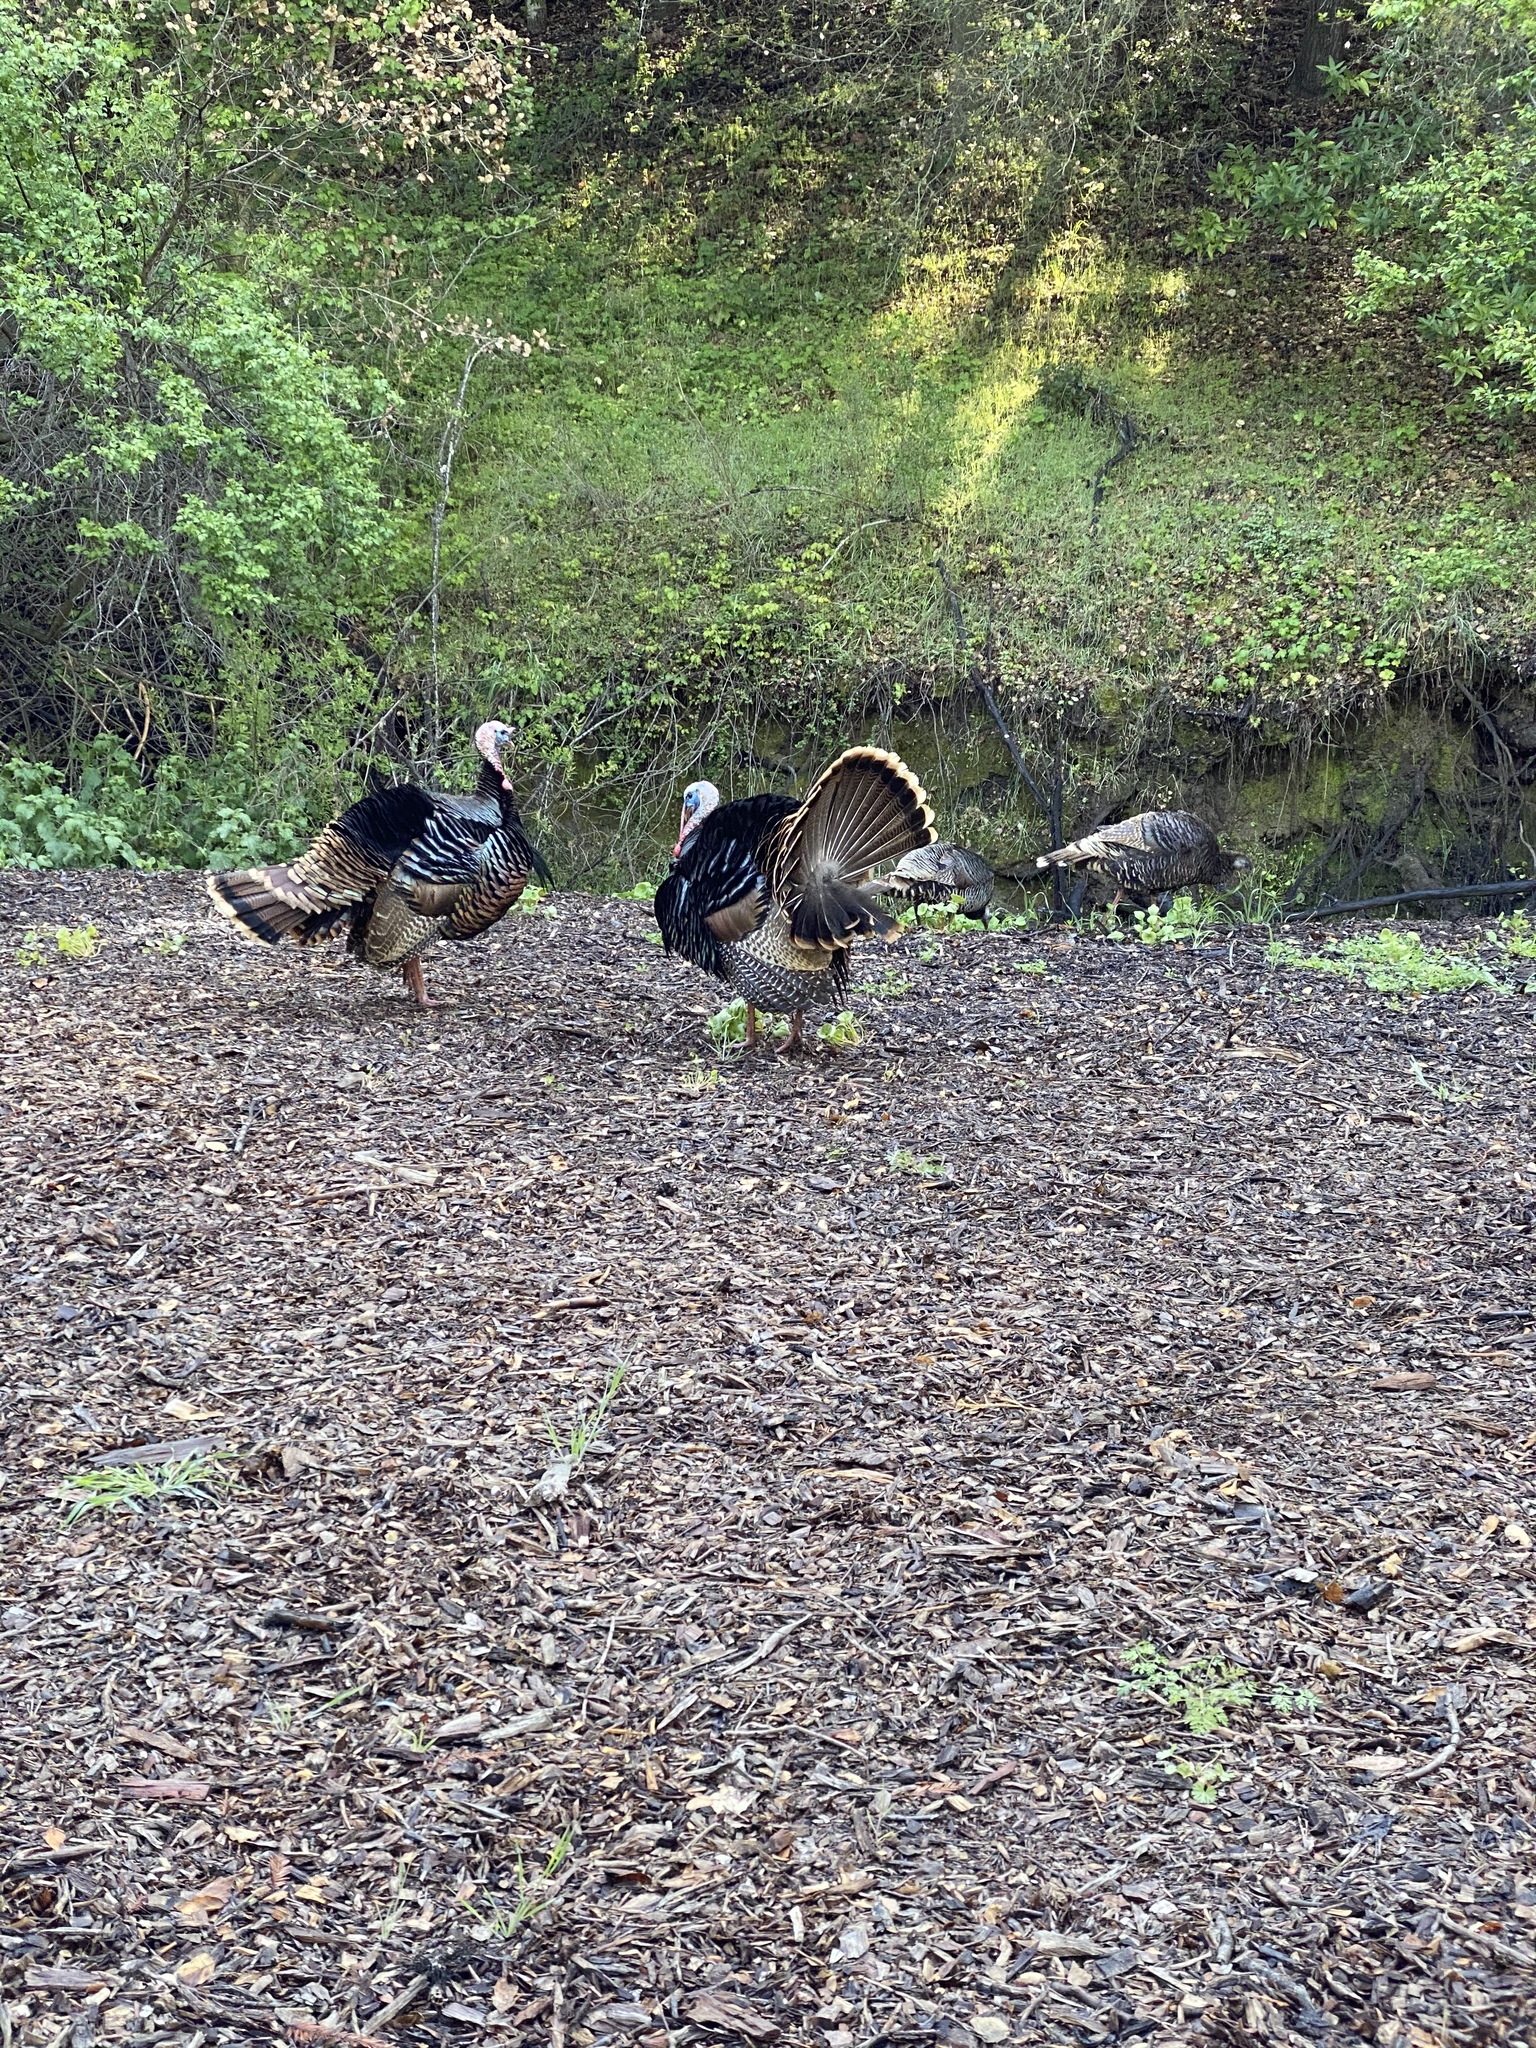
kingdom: Animalia
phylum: Chordata
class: Aves
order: Galliformes
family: Phasianidae
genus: Meleagris
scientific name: Meleagris gallopavo
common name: Wild turkey
